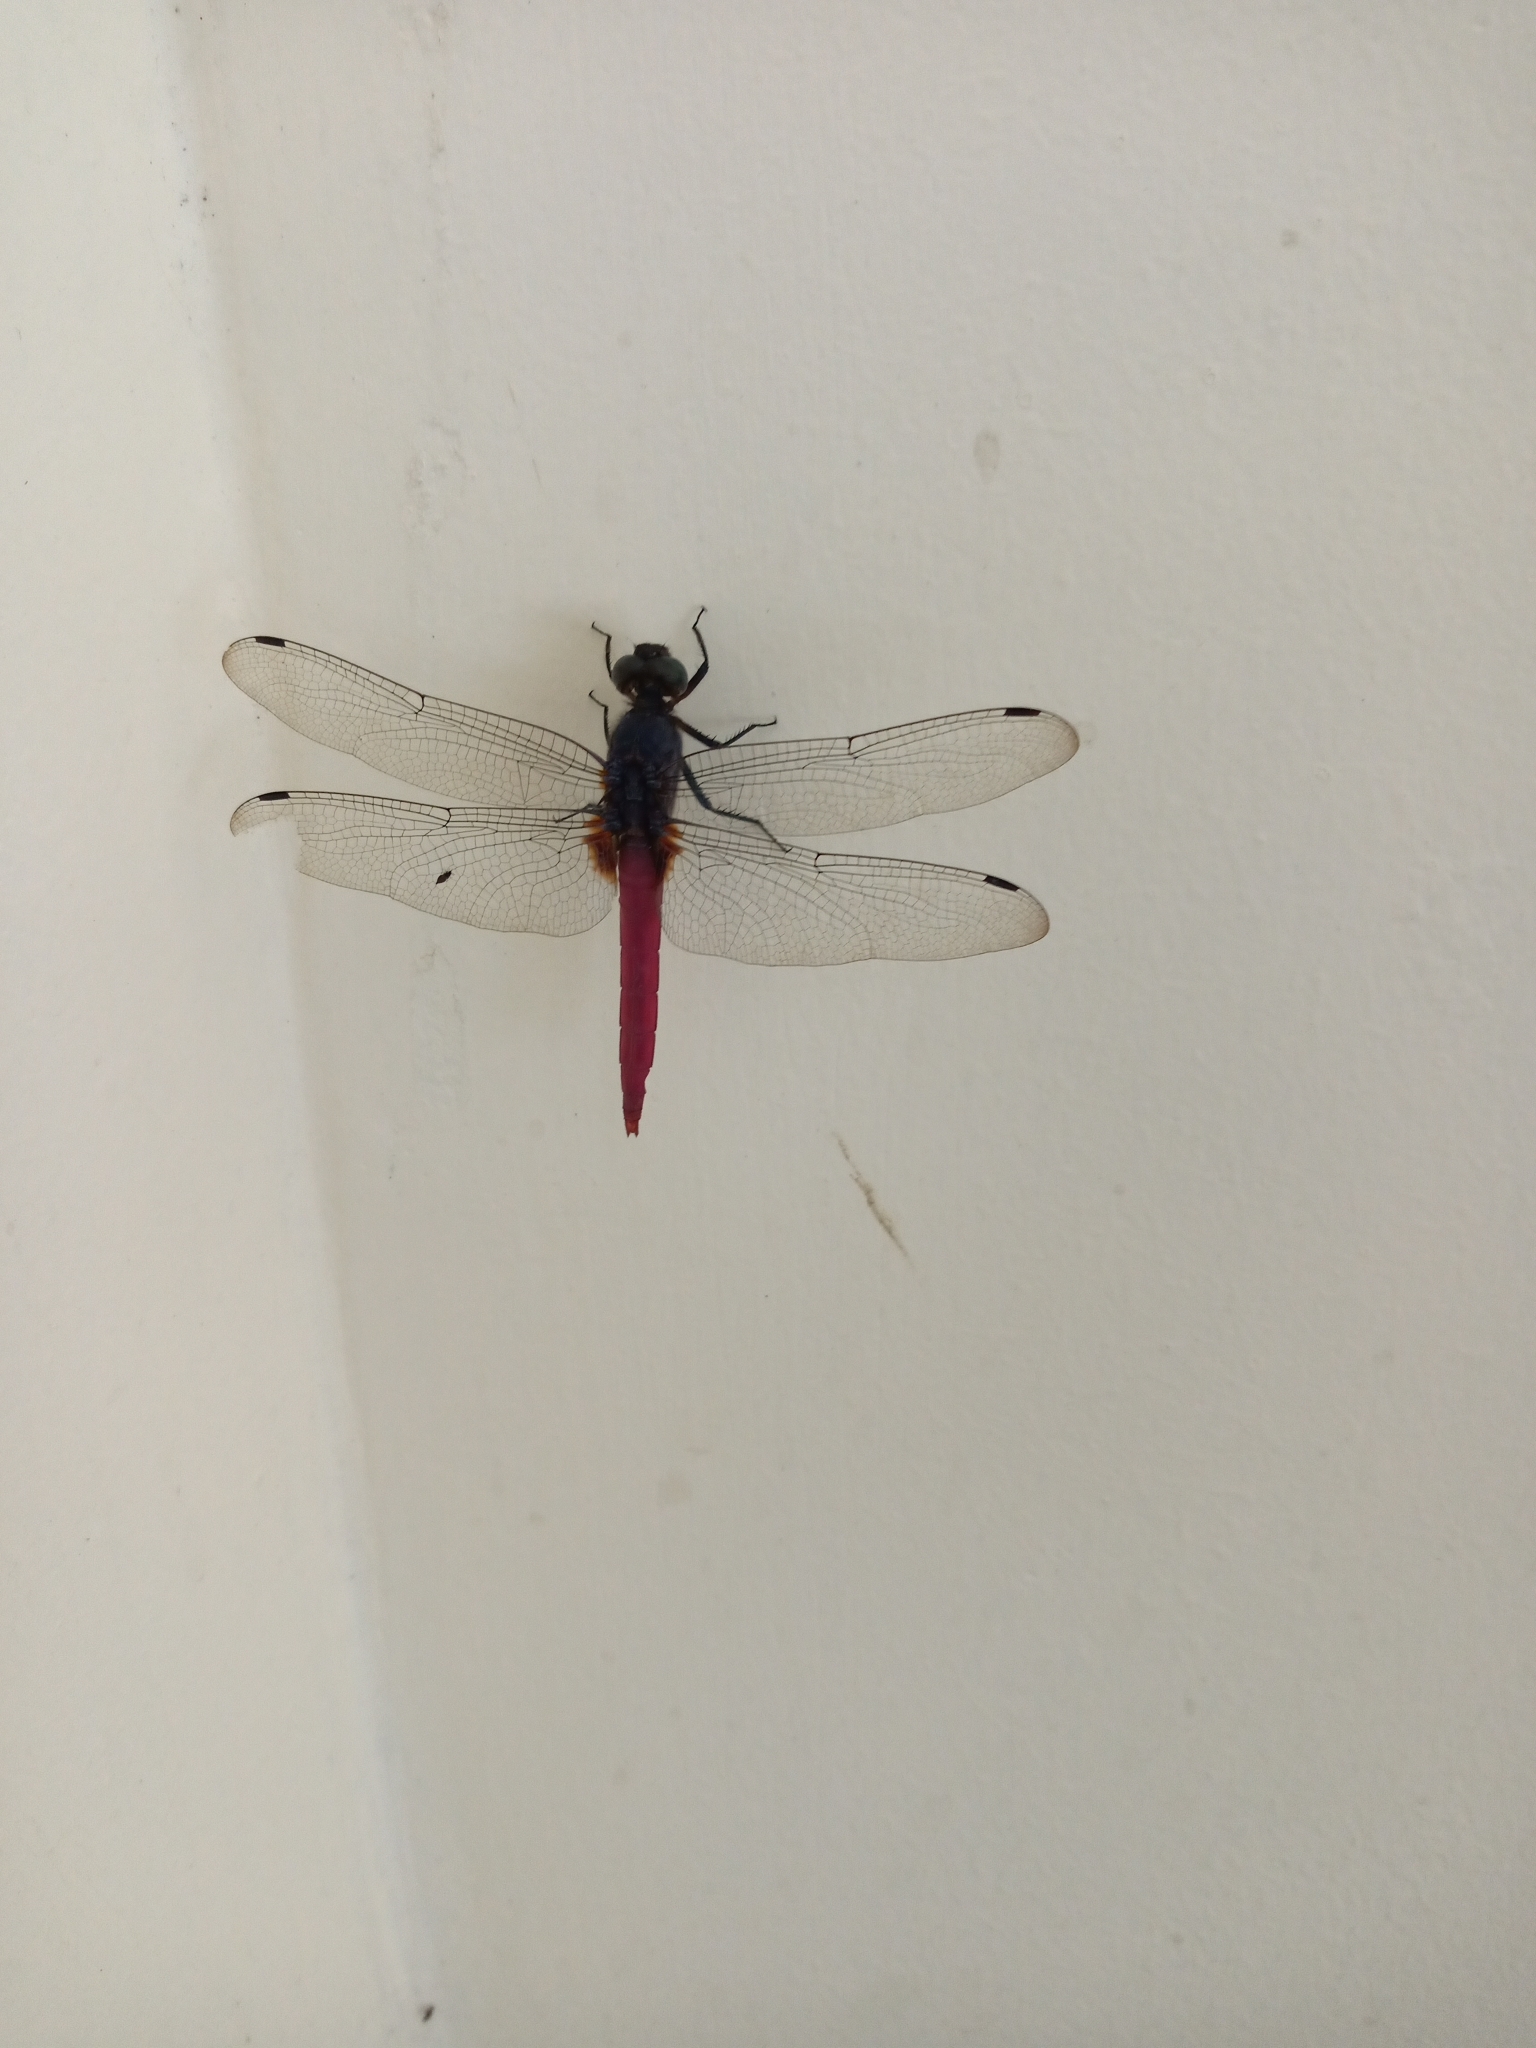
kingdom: Animalia
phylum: Arthropoda
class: Insecta
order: Odonata
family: Libellulidae
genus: Orthetrum
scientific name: Orthetrum pruinosum
